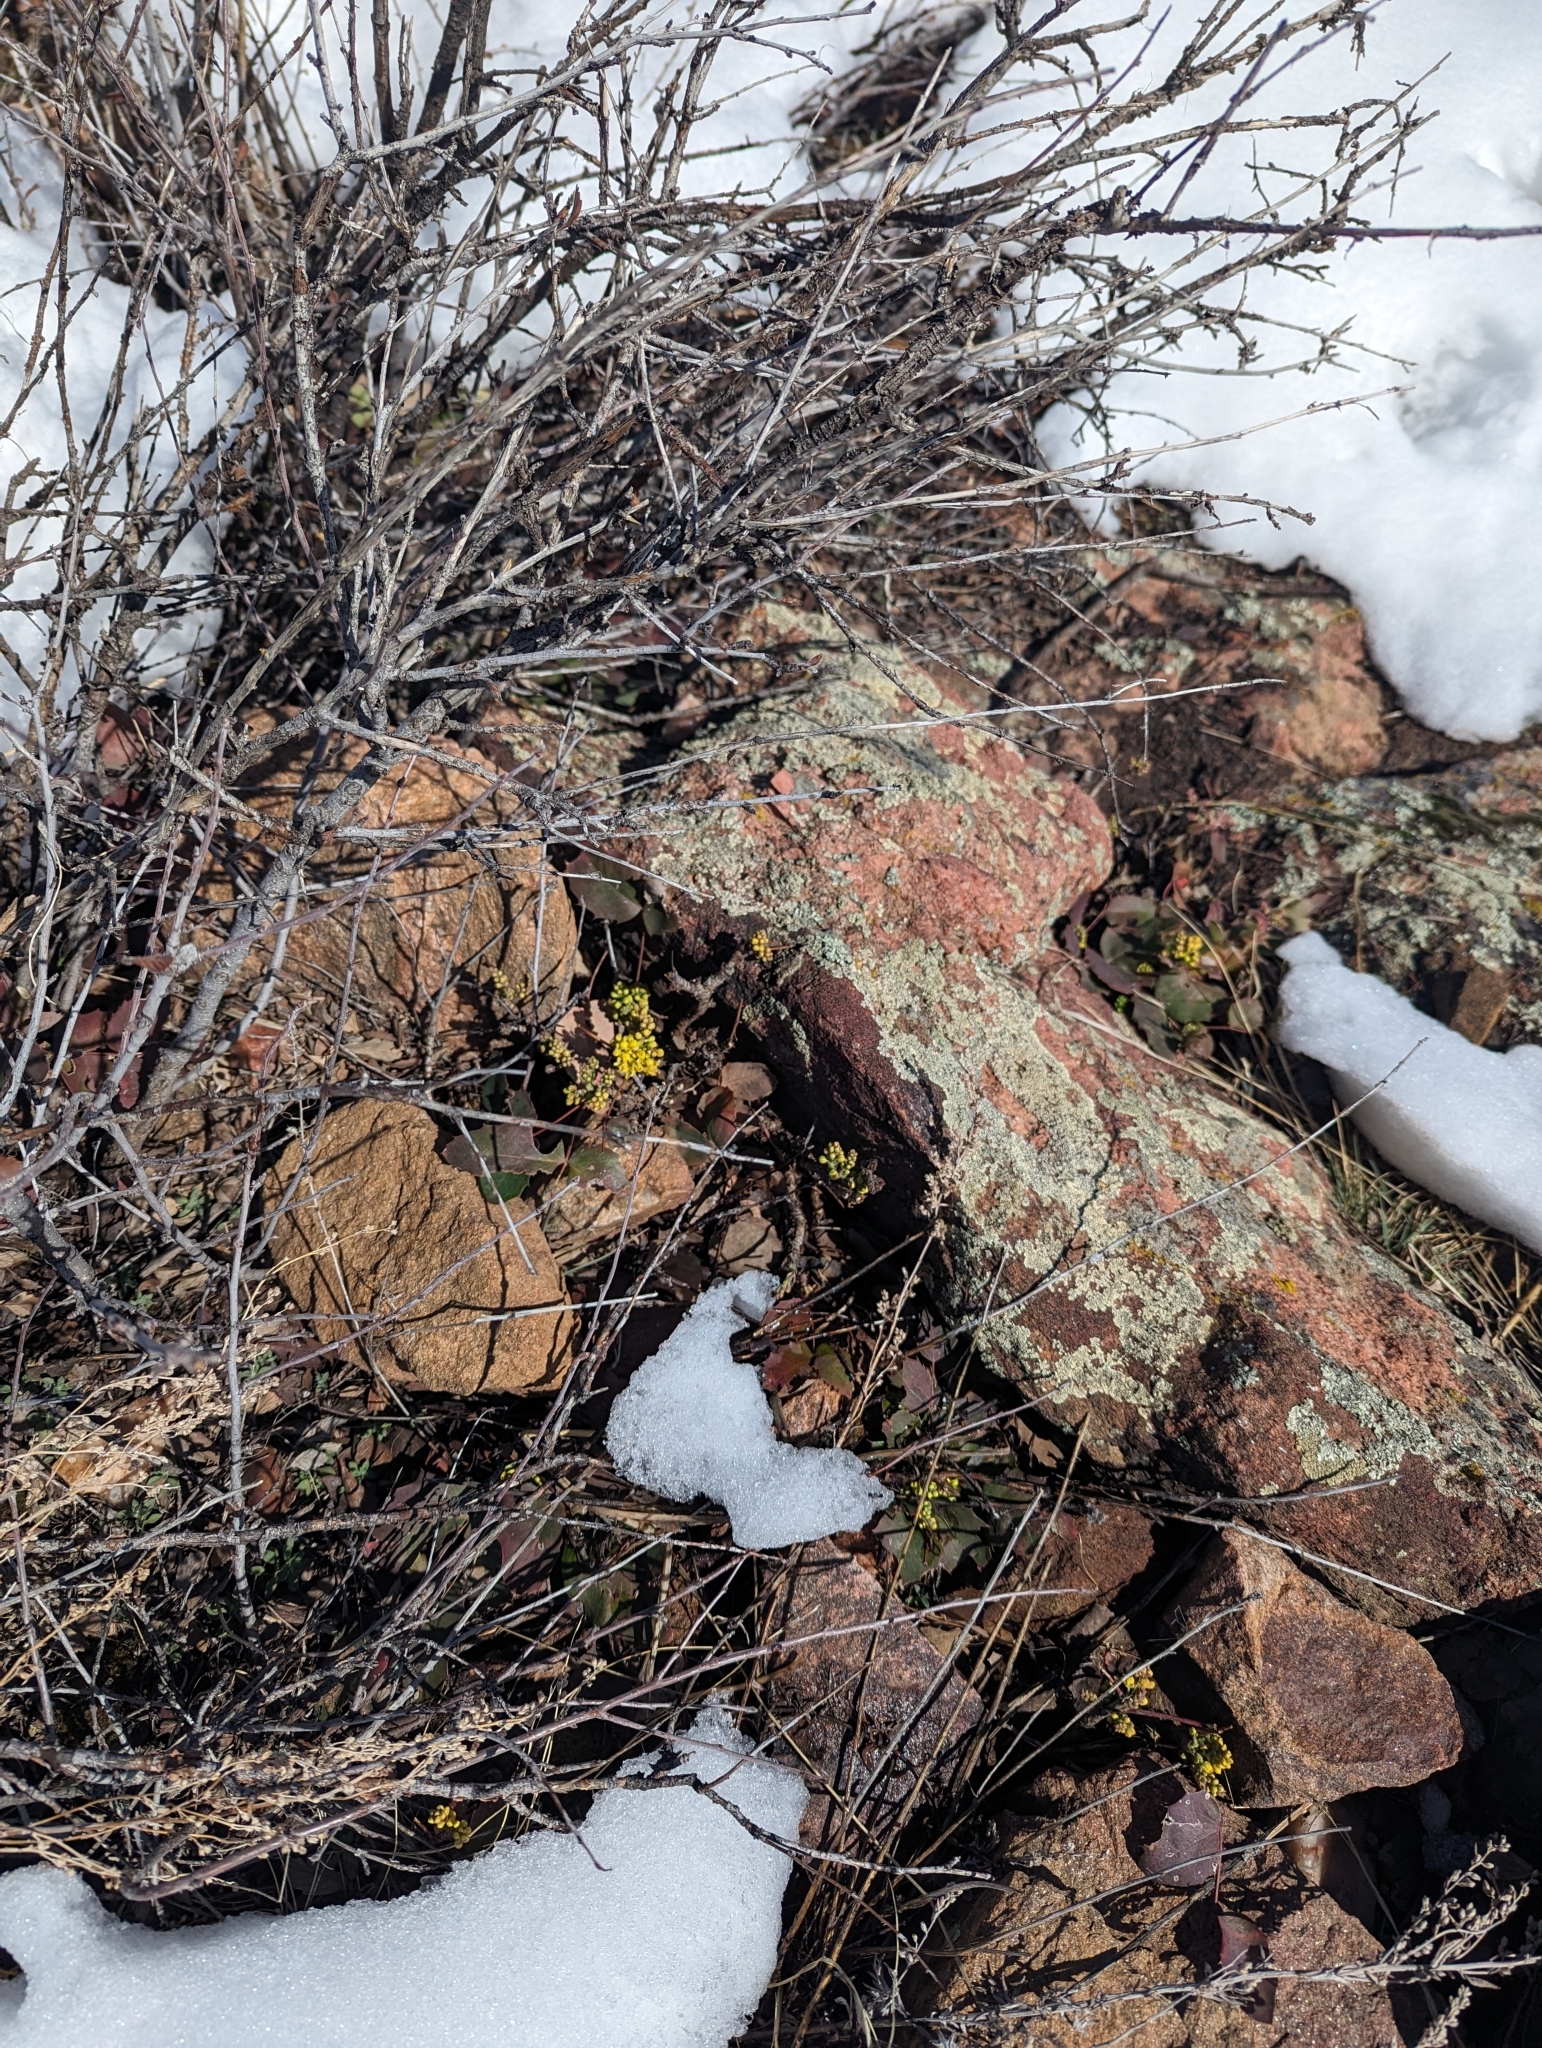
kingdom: Plantae
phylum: Tracheophyta
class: Magnoliopsida
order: Ranunculales
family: Berberidaceae
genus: Mahonia
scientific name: Mahonia repens
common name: Creeping oregon-grape
